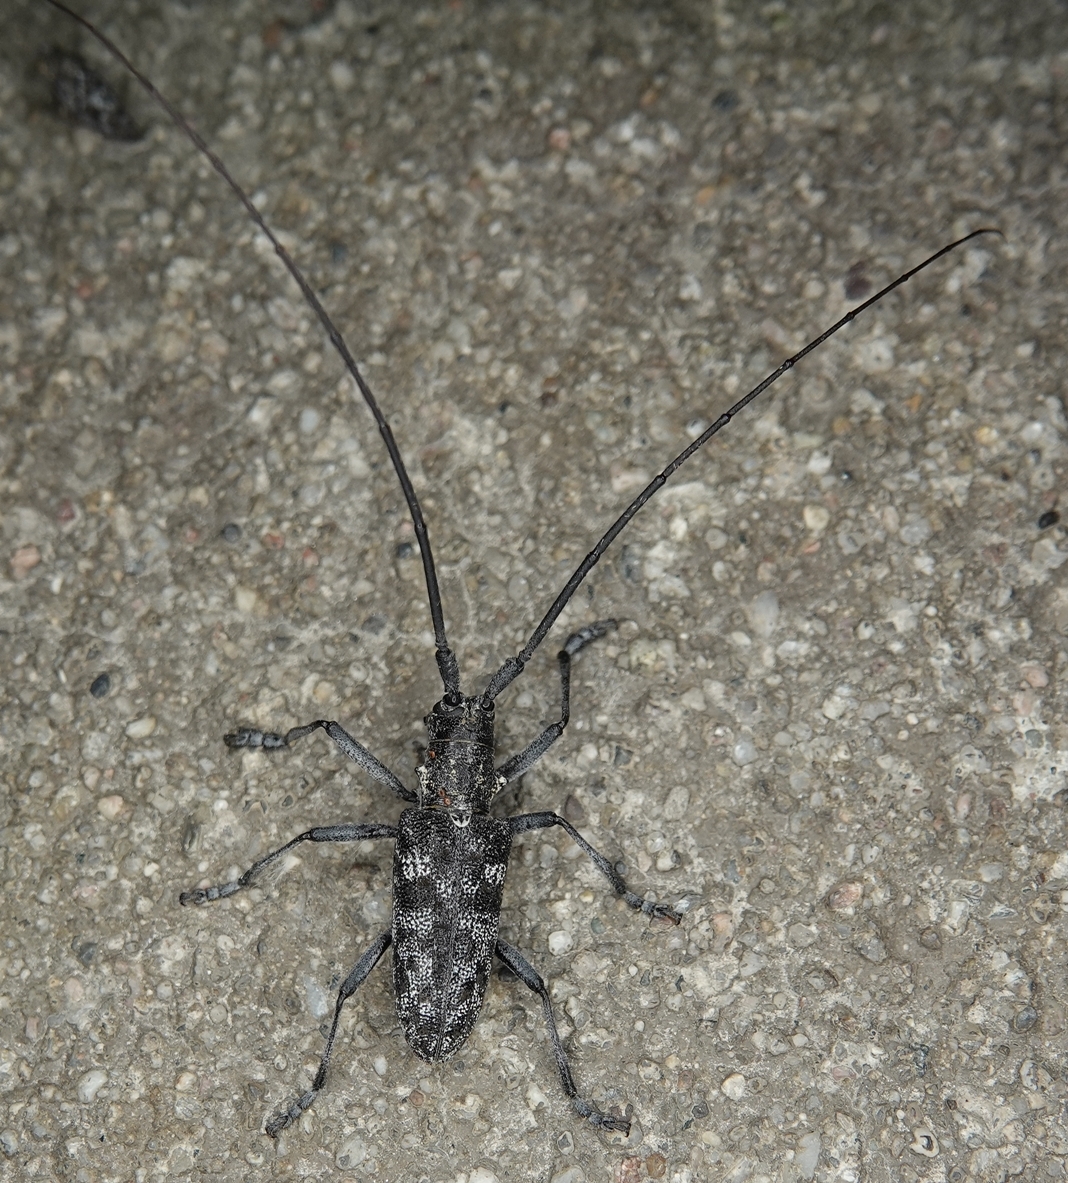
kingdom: Animalia
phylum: Arthropoda
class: Insecta
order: Coleoptera
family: Cerambycidae
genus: Monochamus
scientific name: Monochamus clamator
